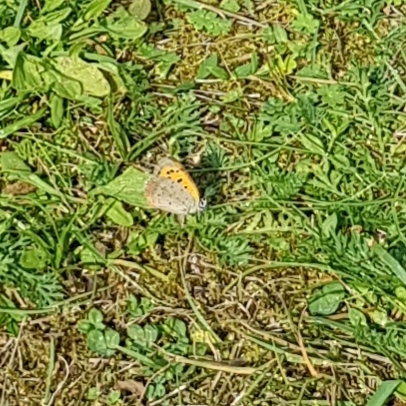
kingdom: Animalia
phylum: Arthropoda
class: Insecta
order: Lepidoptera
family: Lycaenidae
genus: Lycaena
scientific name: Lycaena phlaeas
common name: Small copper
